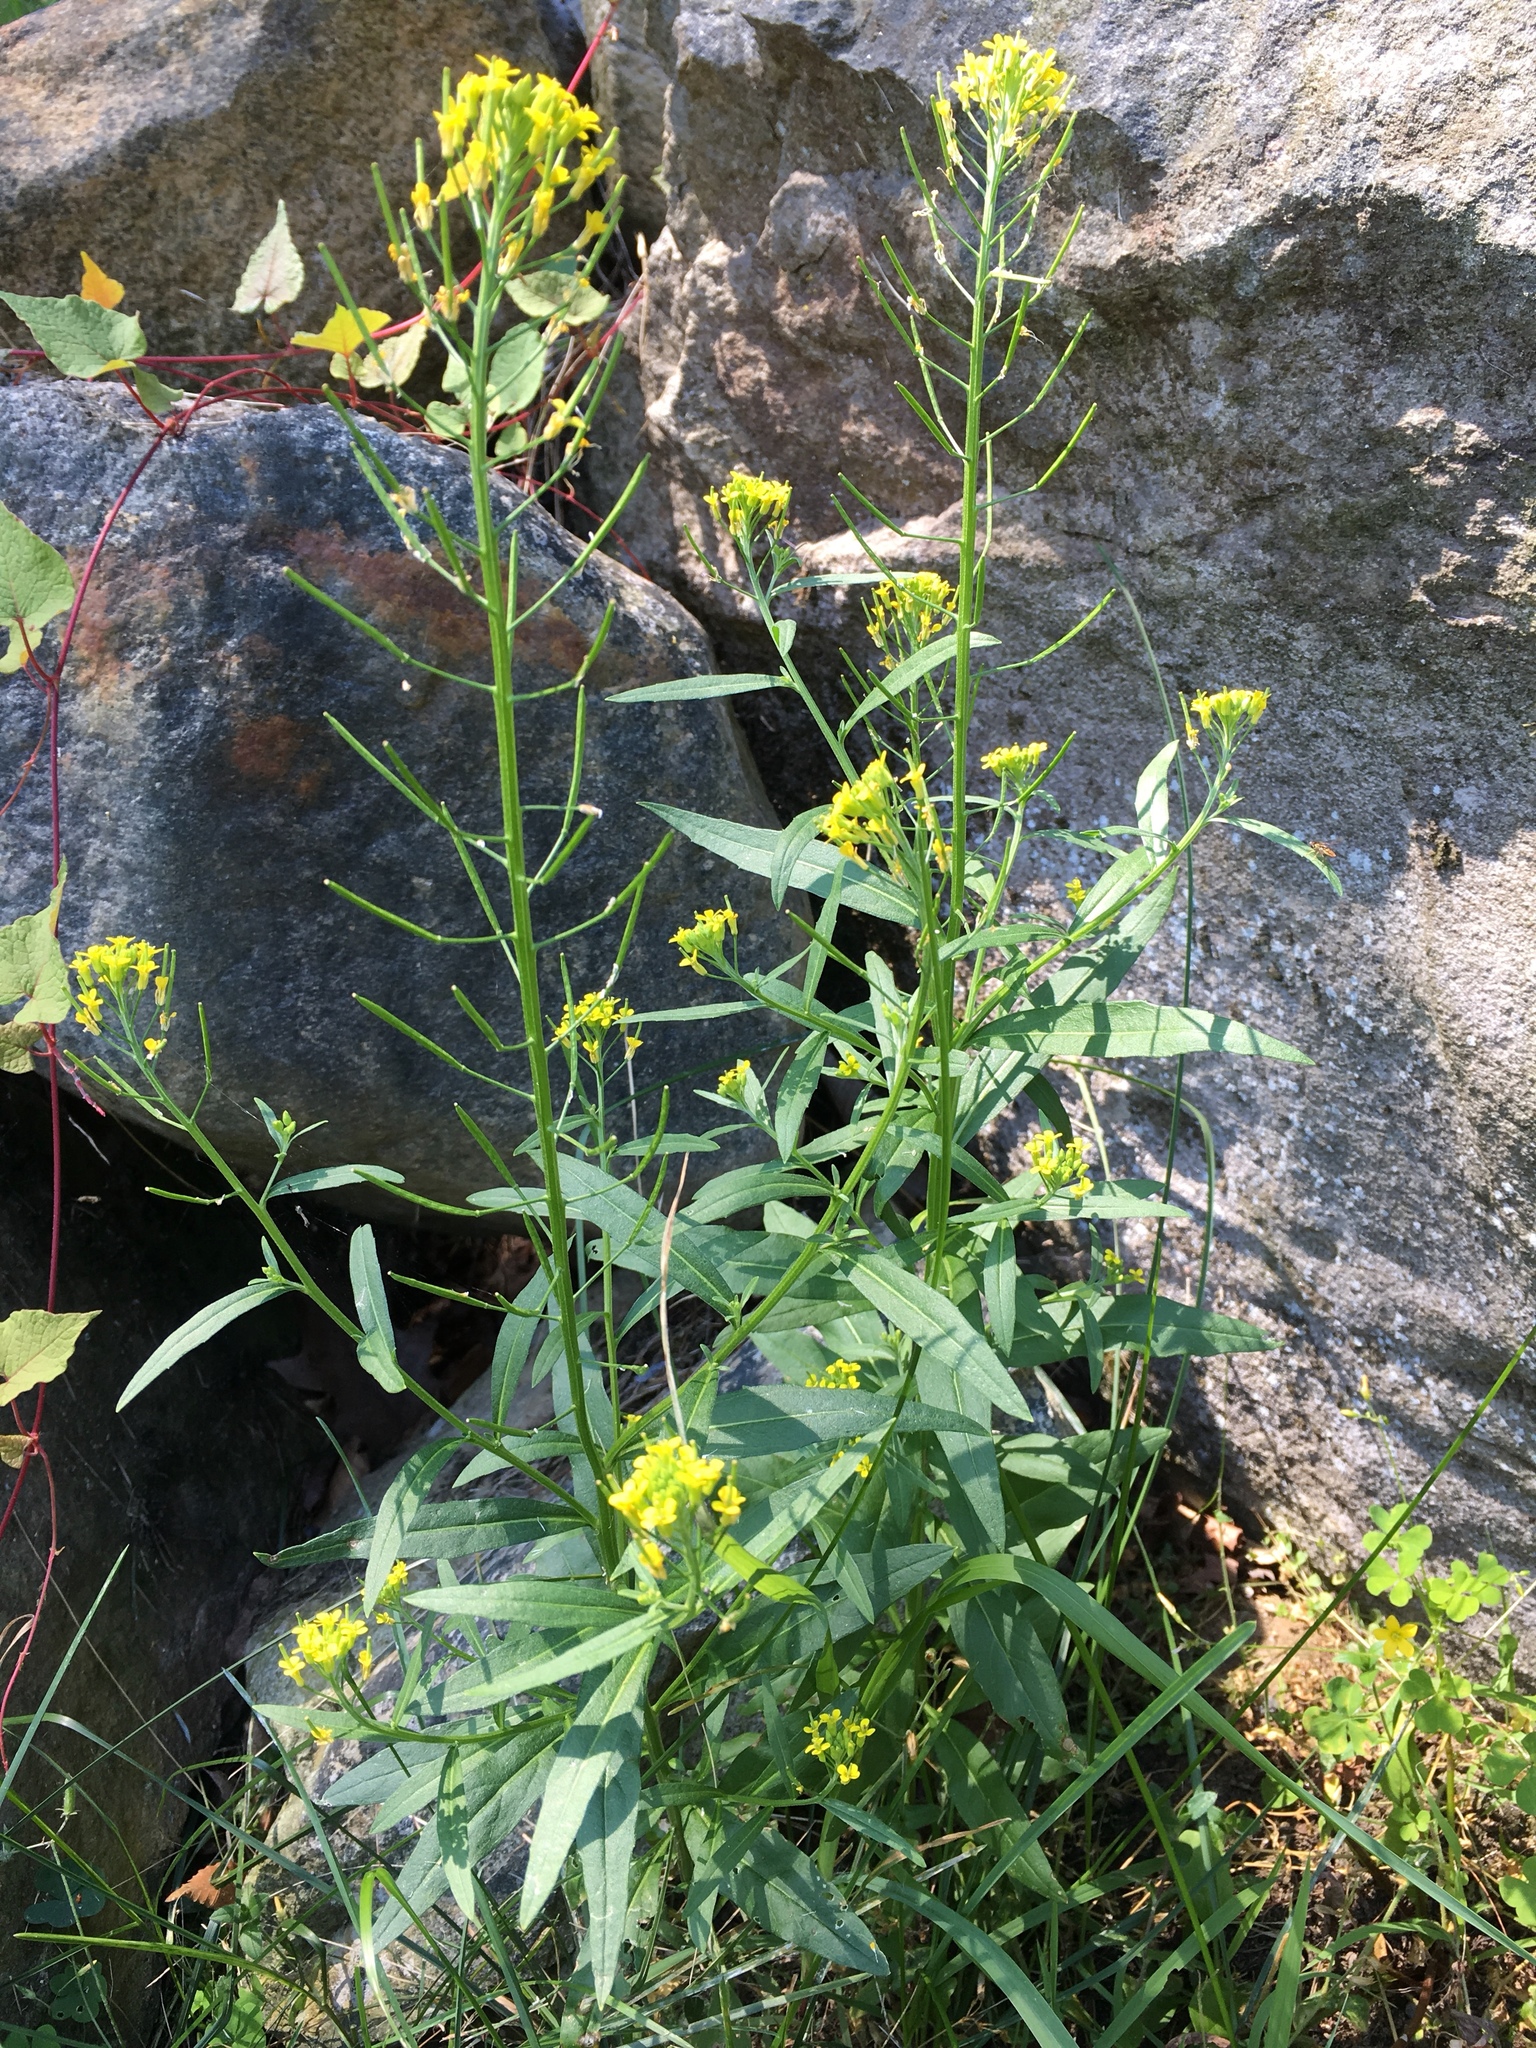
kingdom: Plantae
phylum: Tracheophyta
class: Magnoliopsida
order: Brassicales
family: Brassicaceae
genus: Erysimum
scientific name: Erysimum cheiranthoides
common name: Treacle mustard
